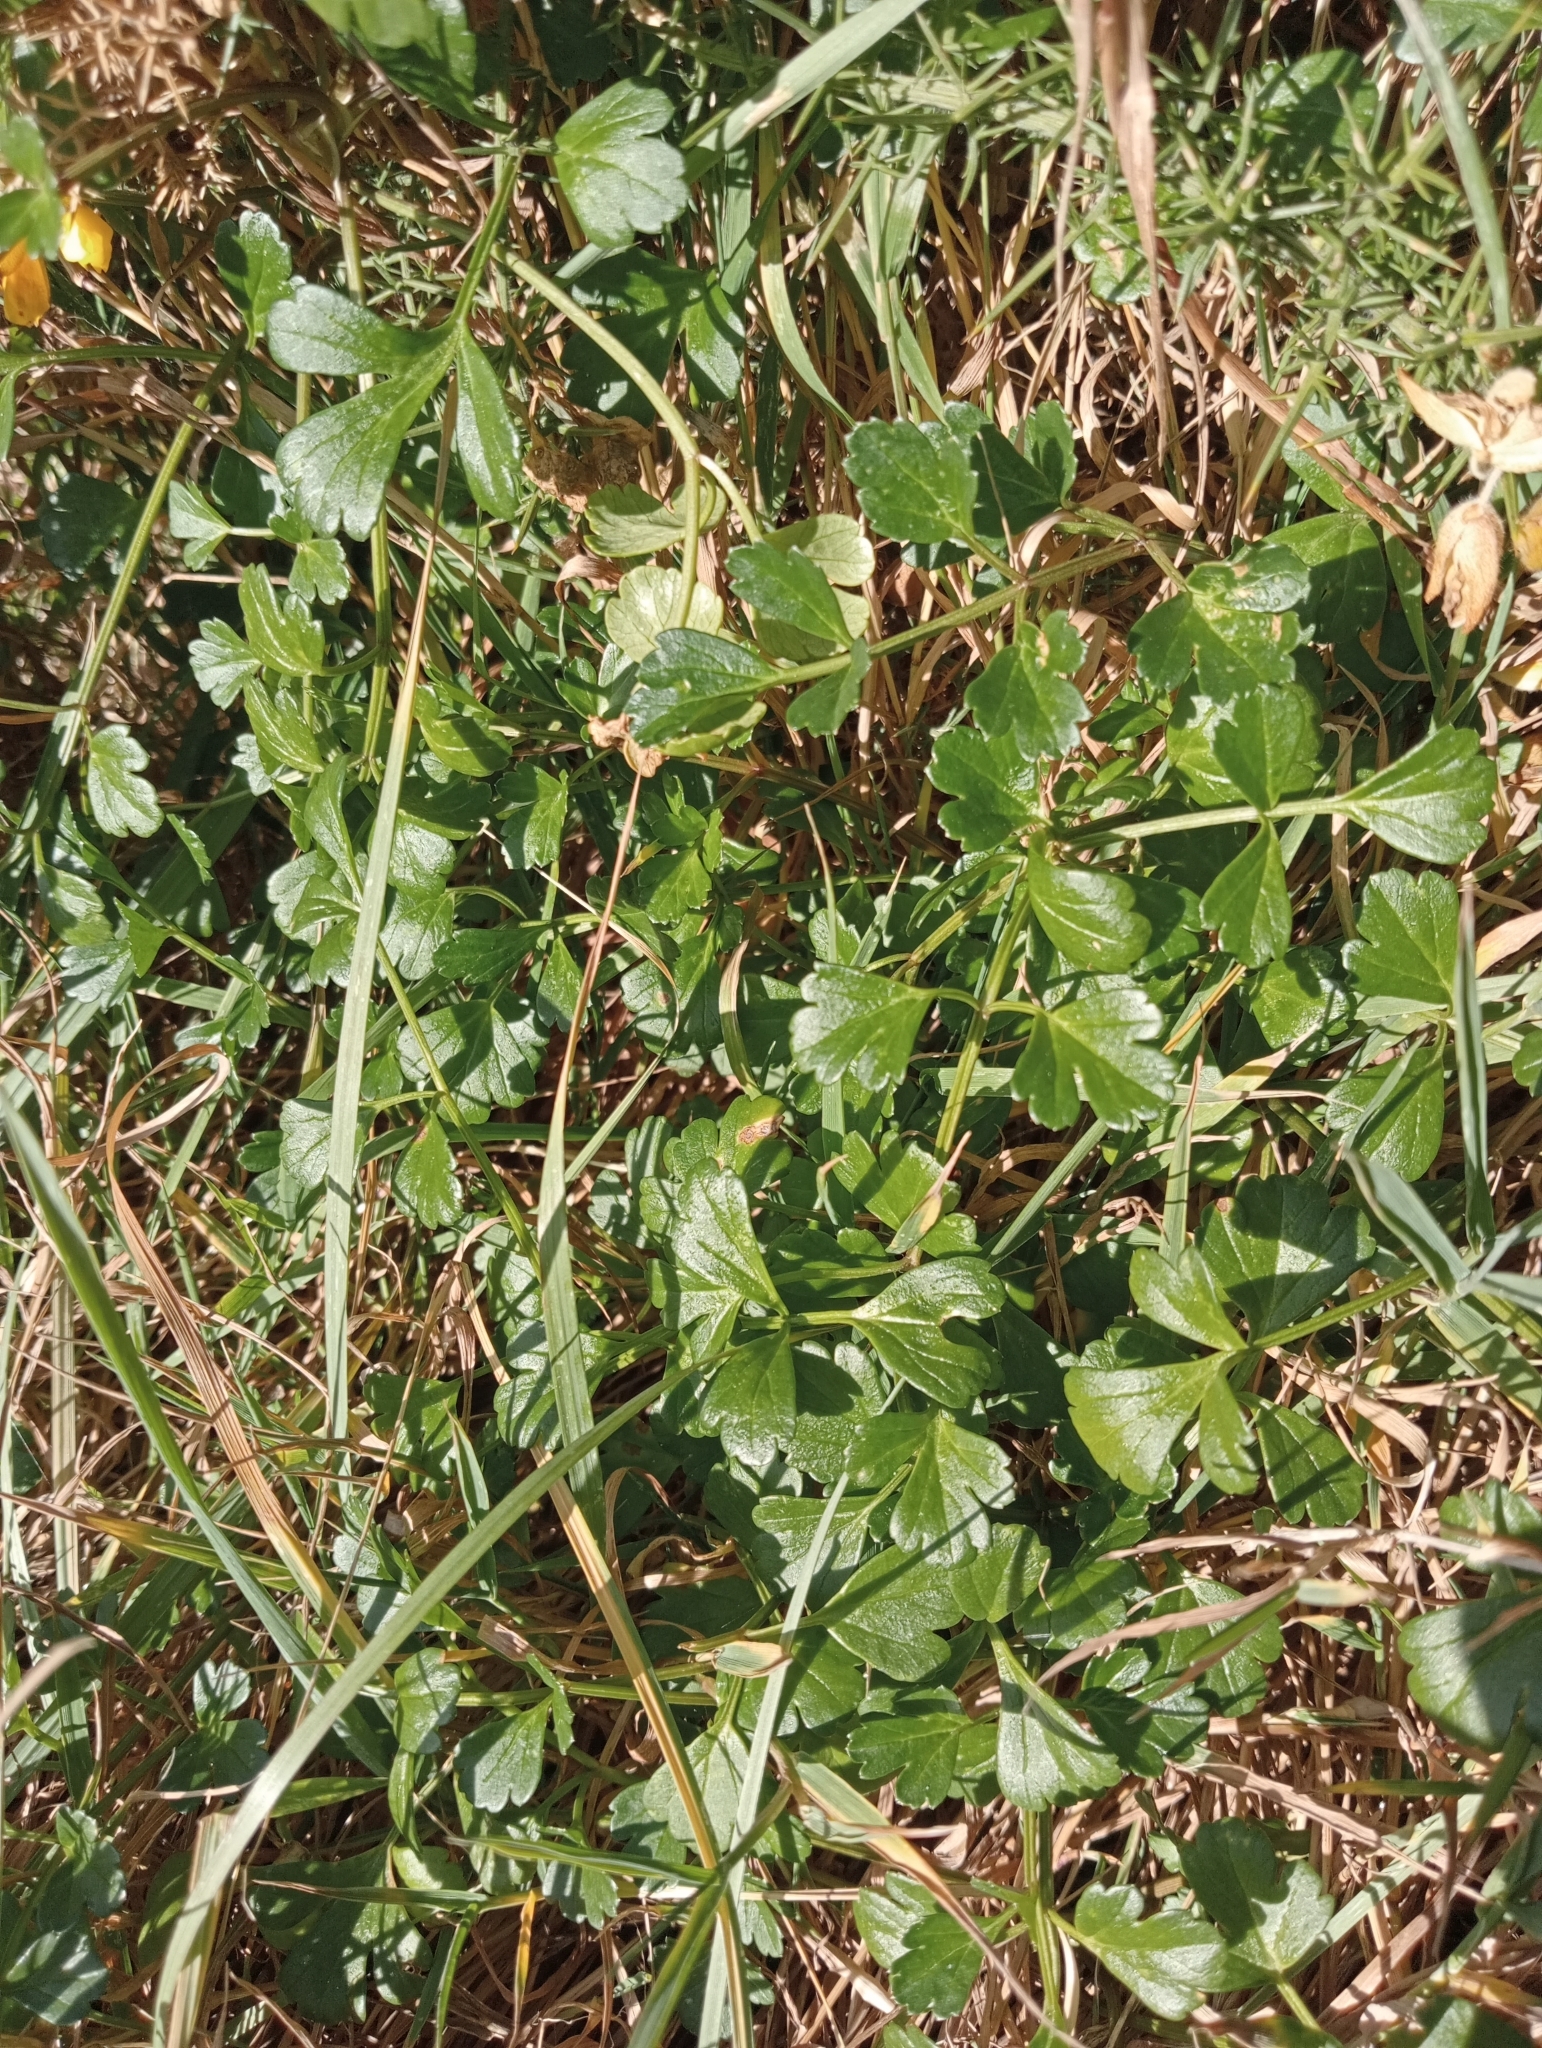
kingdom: Plantae
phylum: Tracheophyta
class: Magnoliopsida
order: Apiales
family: Apiaceae
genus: Apium
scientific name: Apium prostratum
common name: Prostrate marshwort
